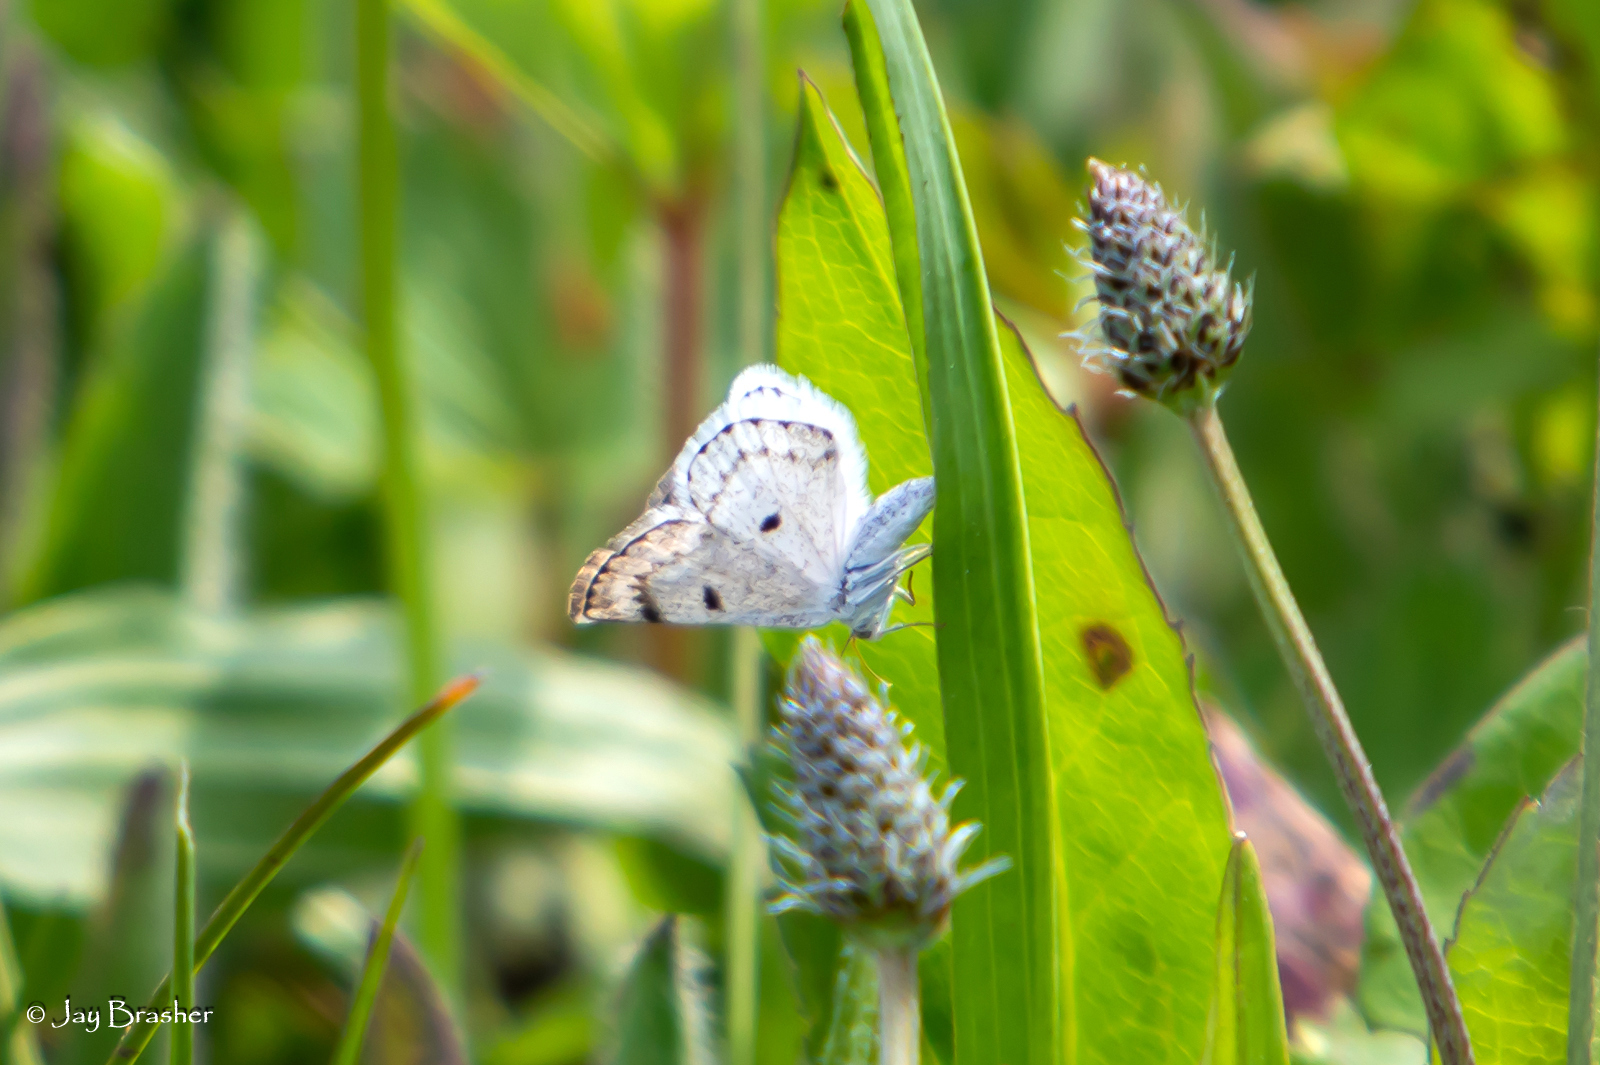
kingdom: Animalia
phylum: Arthropoda
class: Insecta
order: Lepidoptera
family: Geometridae
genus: Lomographa
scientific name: Lomographa semiclarata
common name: Bluish spring moth
